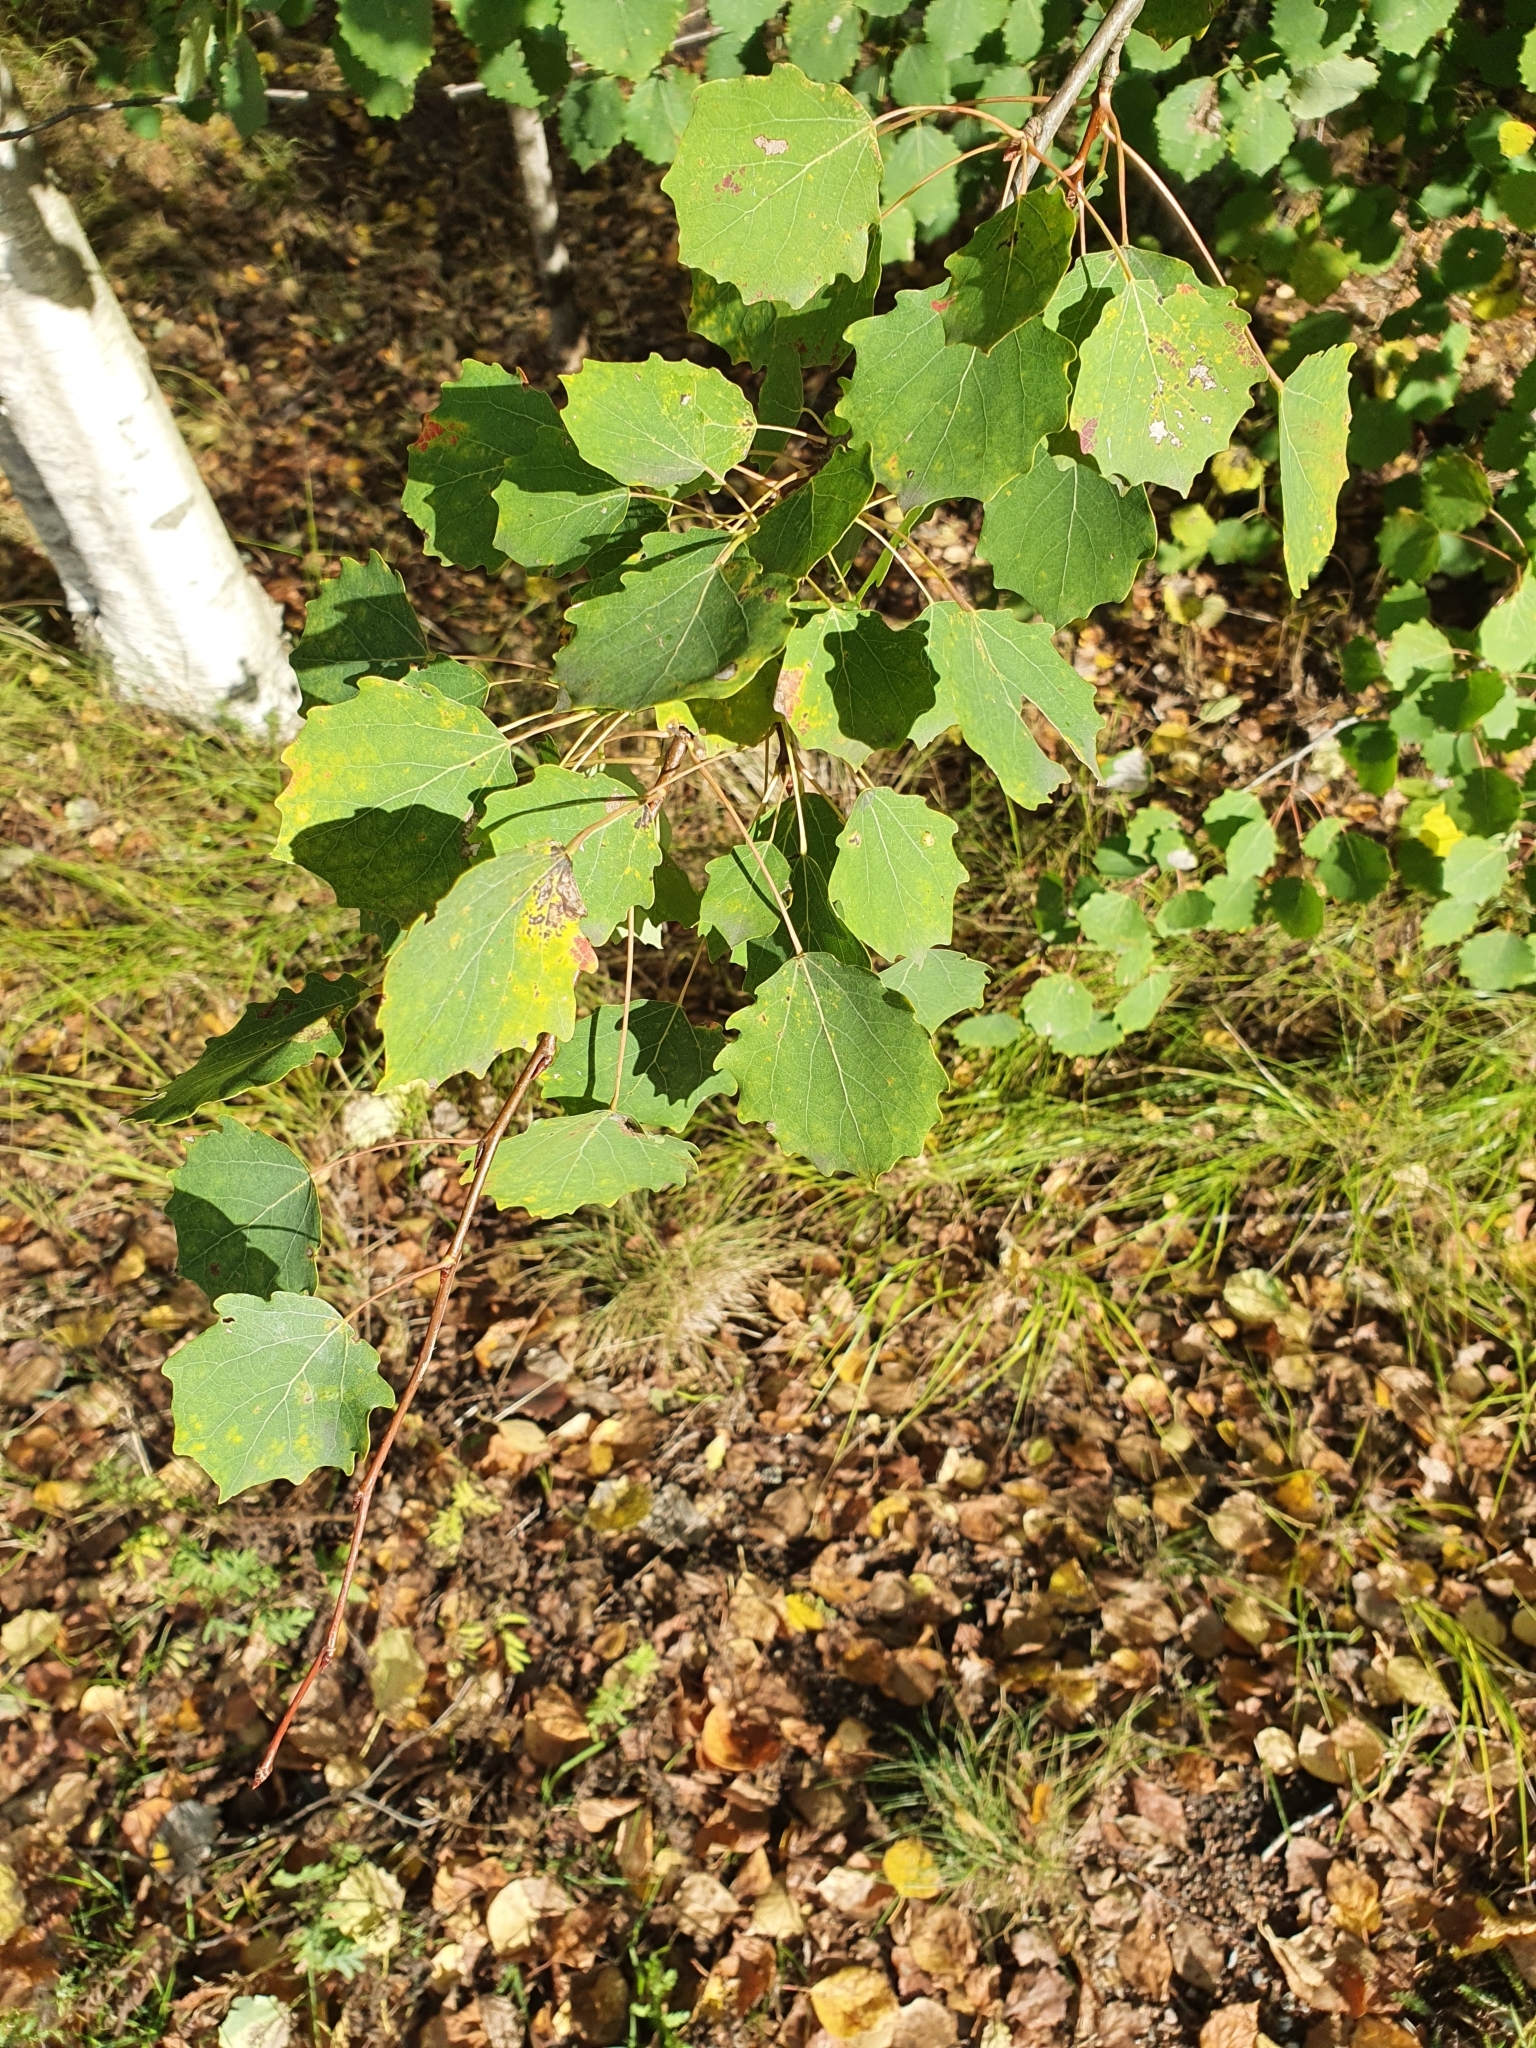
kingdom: Plantae
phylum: Tracheophyta
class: Magnoliopsida
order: Malpighiales
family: Salicaceae
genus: Populus
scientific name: Populus tremula
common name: European aspen
